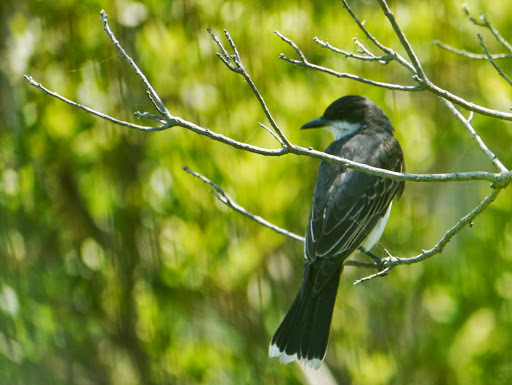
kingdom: Animalia
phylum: Chordata
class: Aves
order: Passeriformes
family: Tyrannidae
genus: Tyrannus
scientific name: Tyrannus tyrannus
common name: Eastern kingbird
